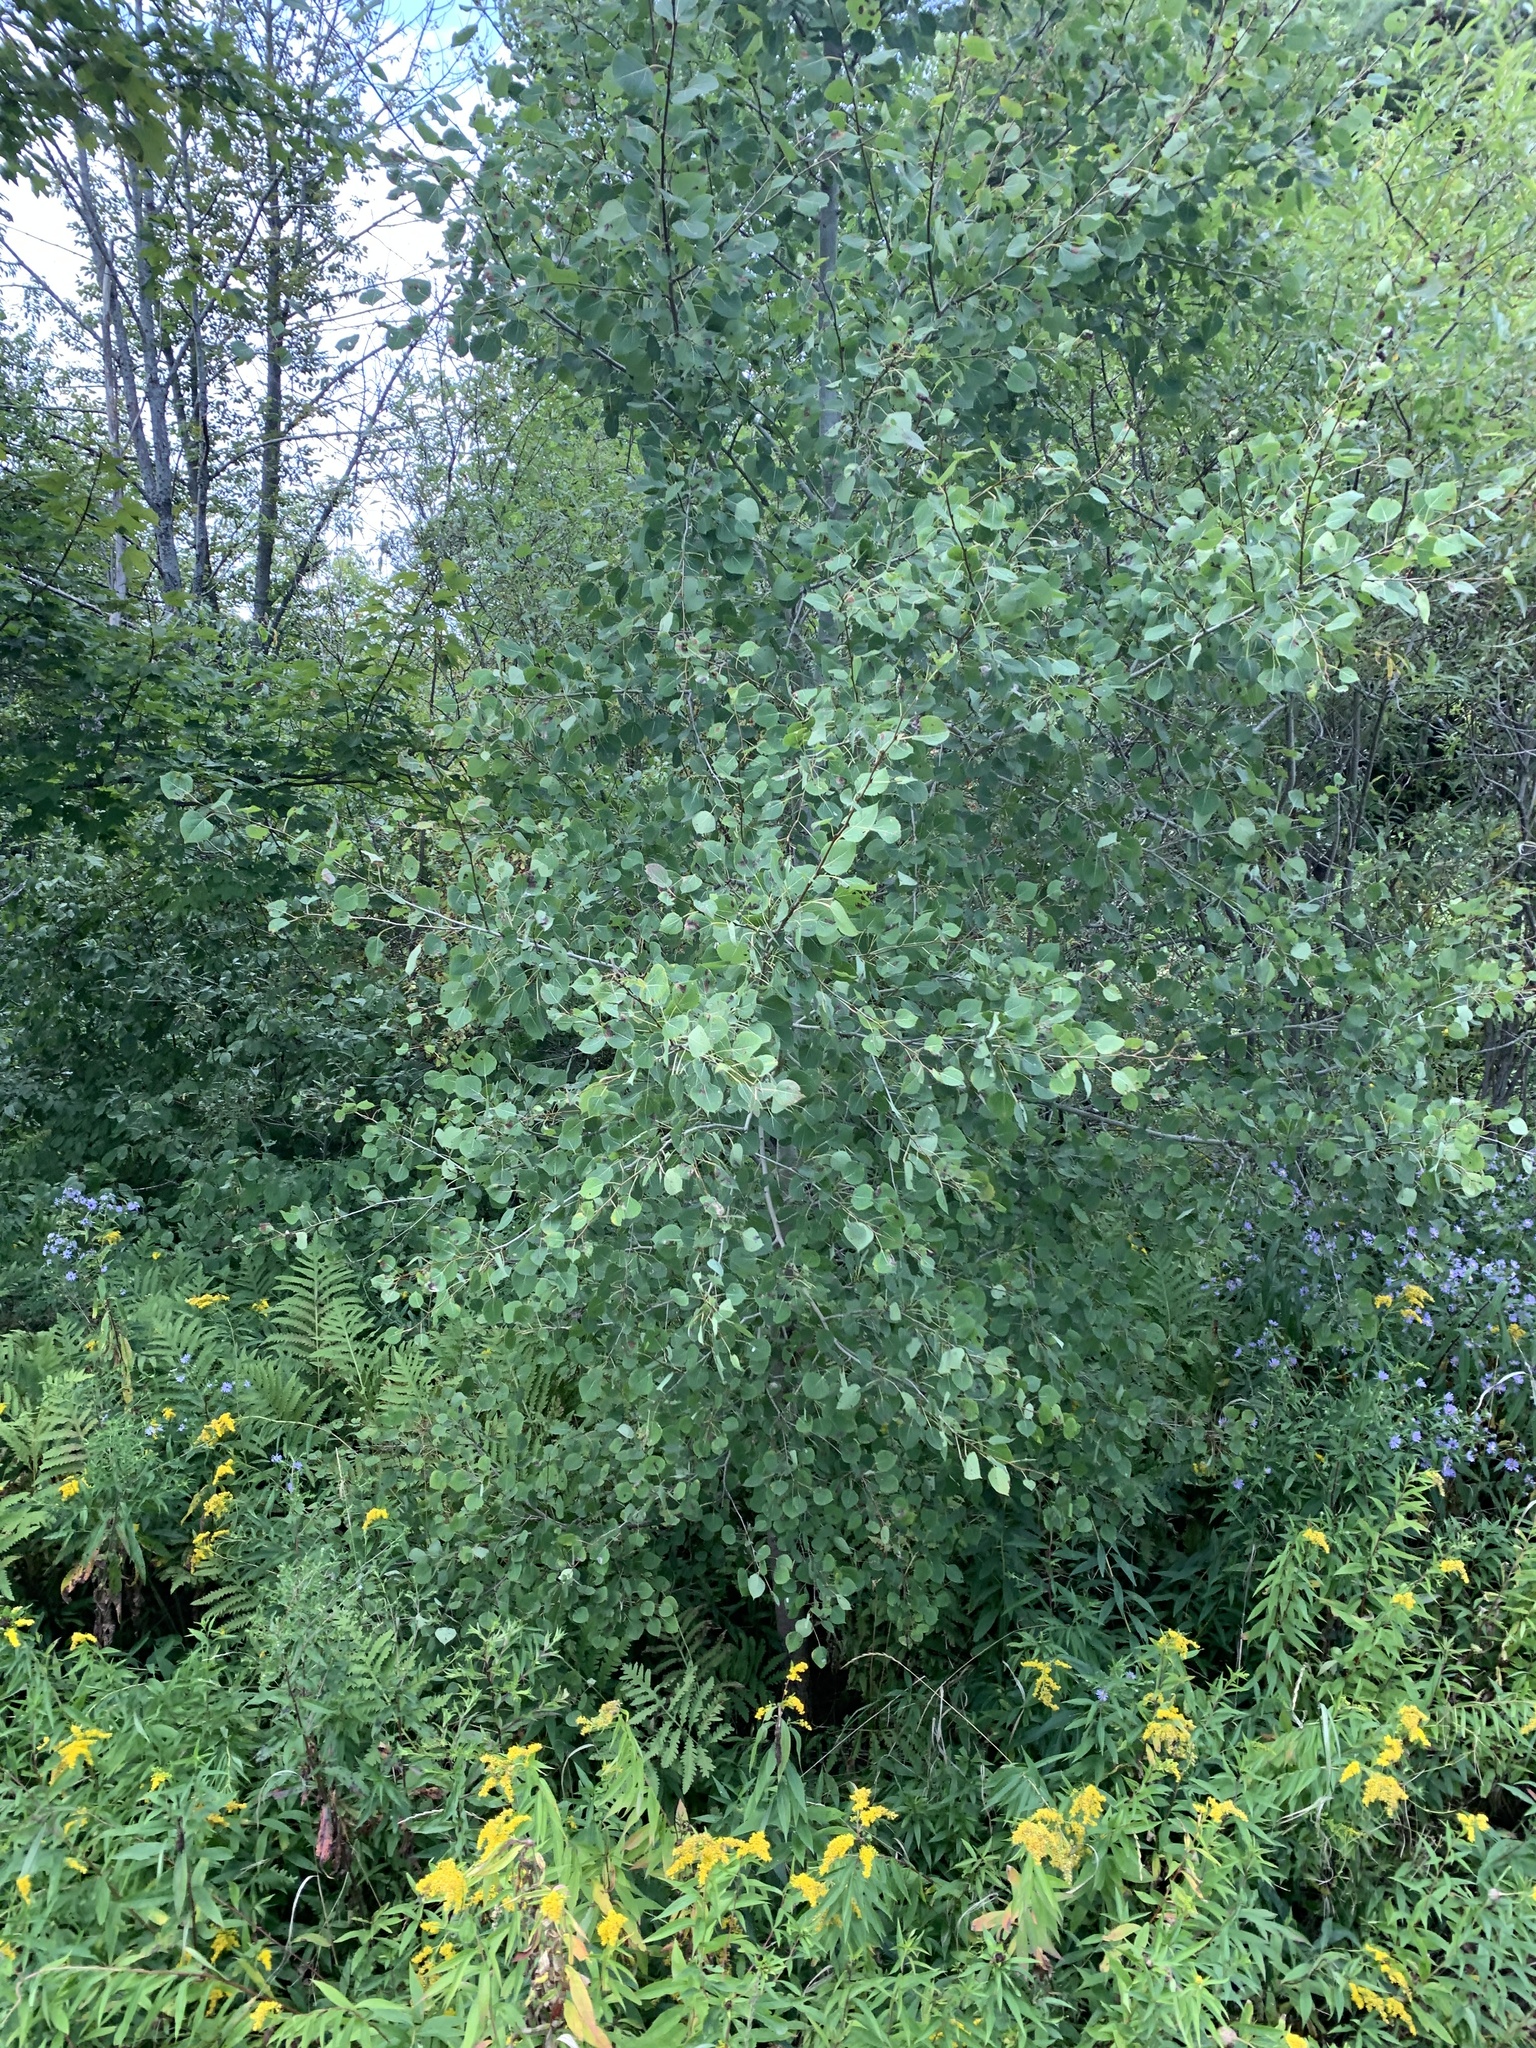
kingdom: Plantae
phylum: Tracheophyta
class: Magnoliopsida
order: Malpighiales
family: Salicaceae
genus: Populus
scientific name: Populus tremuloides
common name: Quaking aspen
